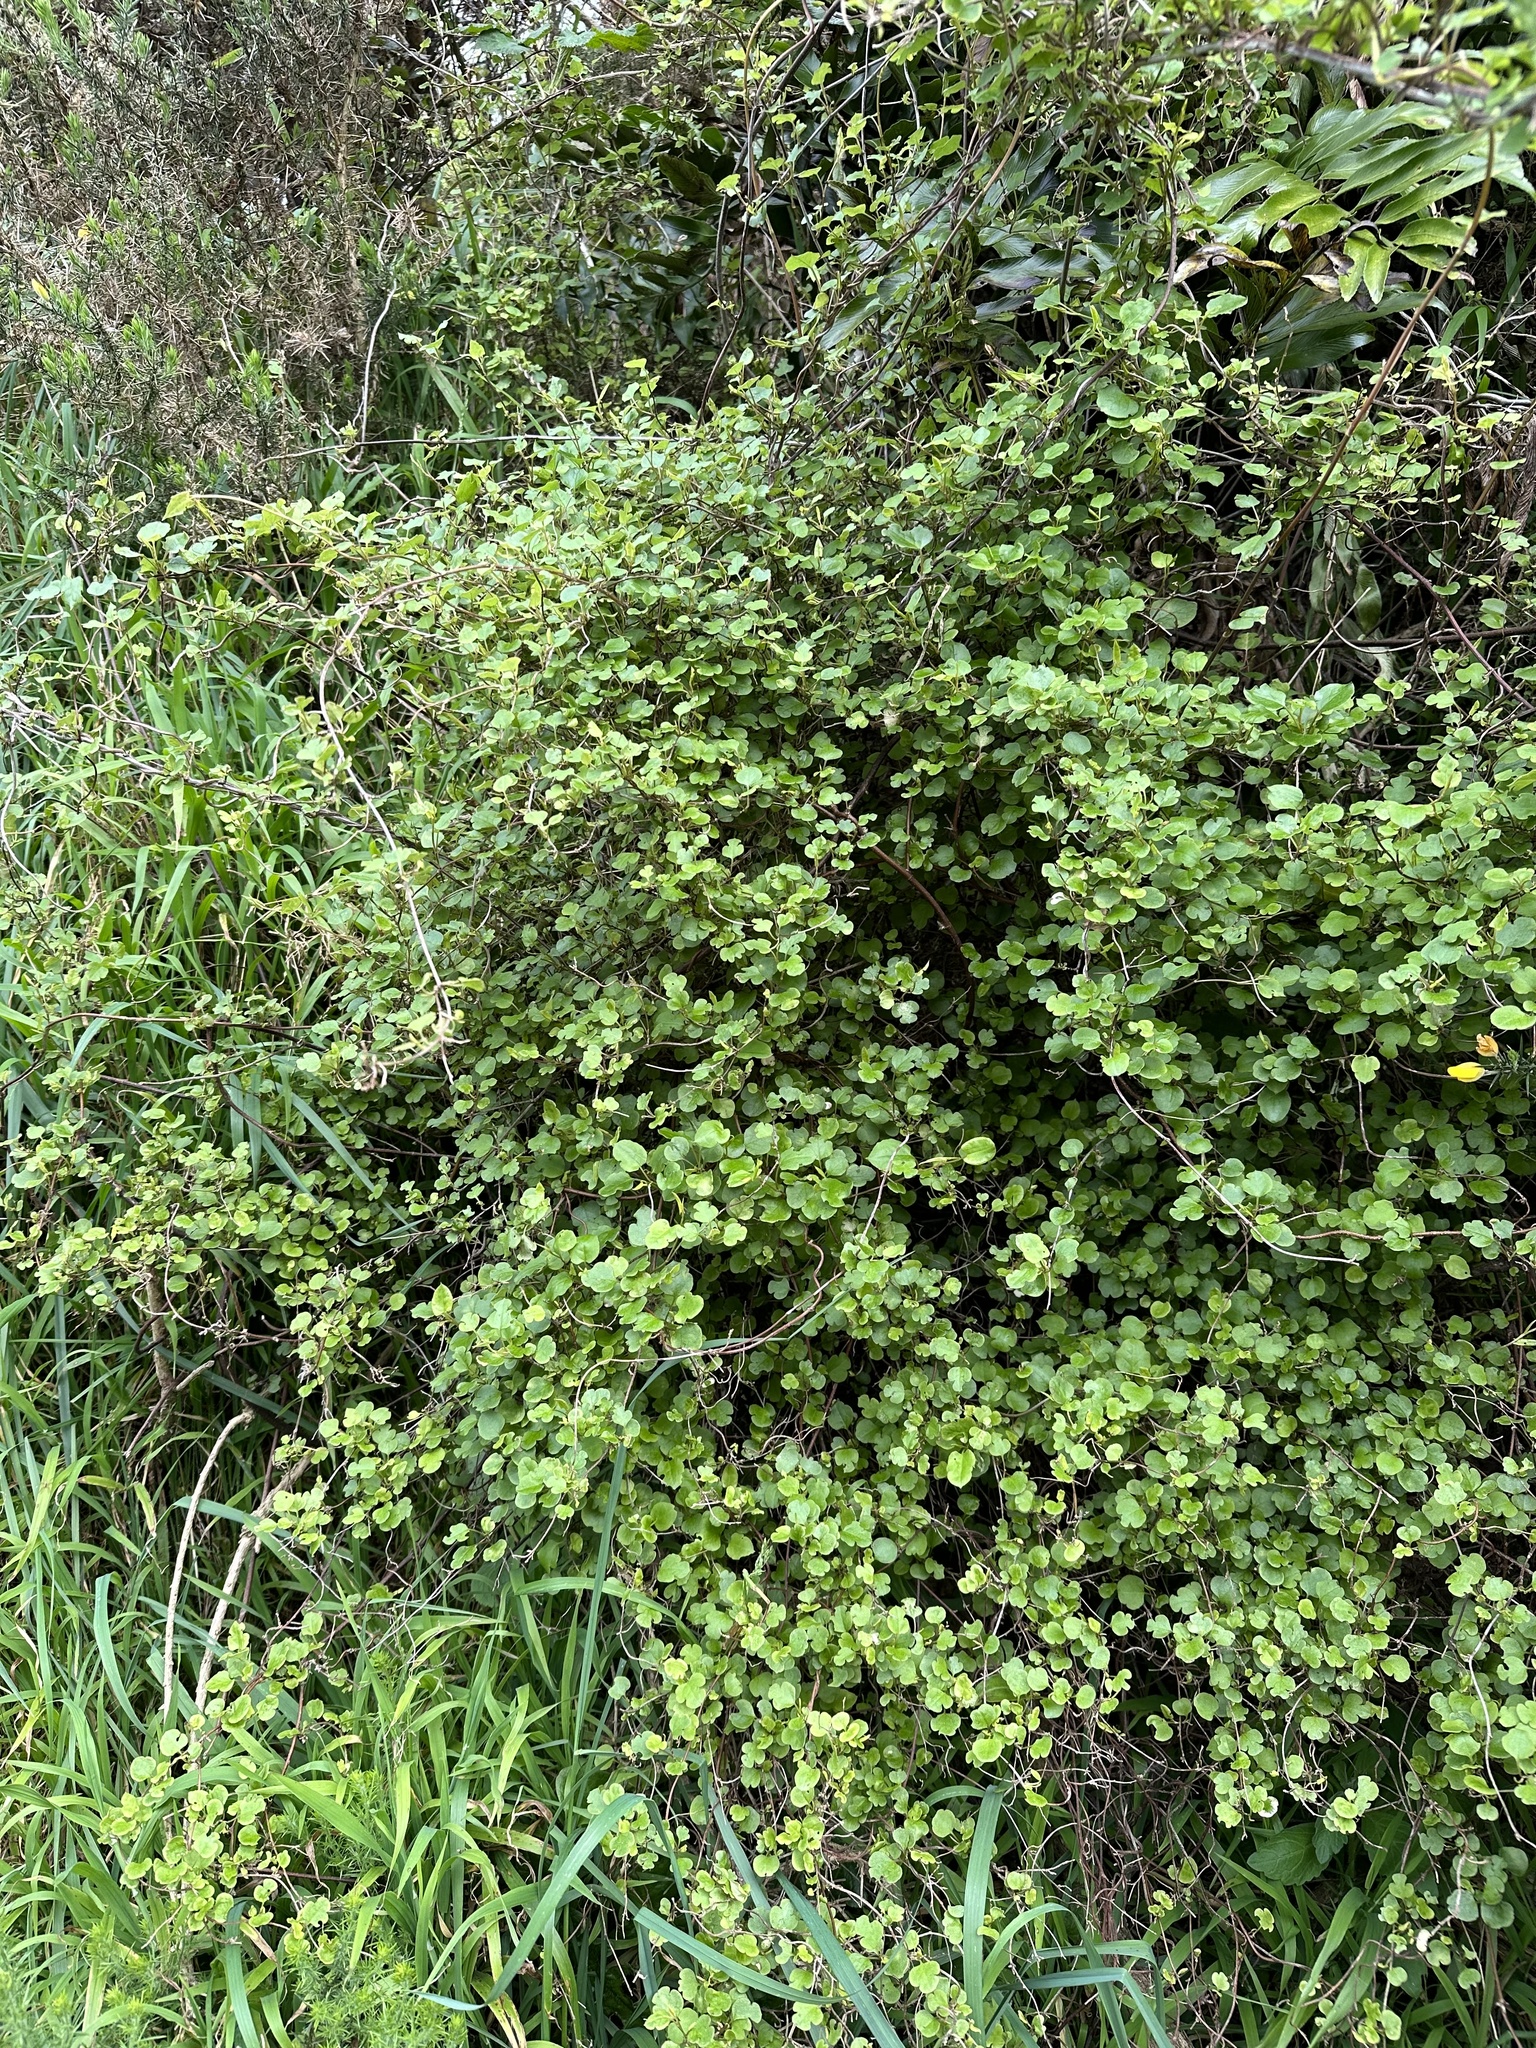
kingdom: Plantae
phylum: Tracheophyta
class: Magnoliopsida
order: Caryophyllales
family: Polygonaceae
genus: Muehlenbeckia
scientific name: Muehlenbeckia complexa
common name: Wireplant
